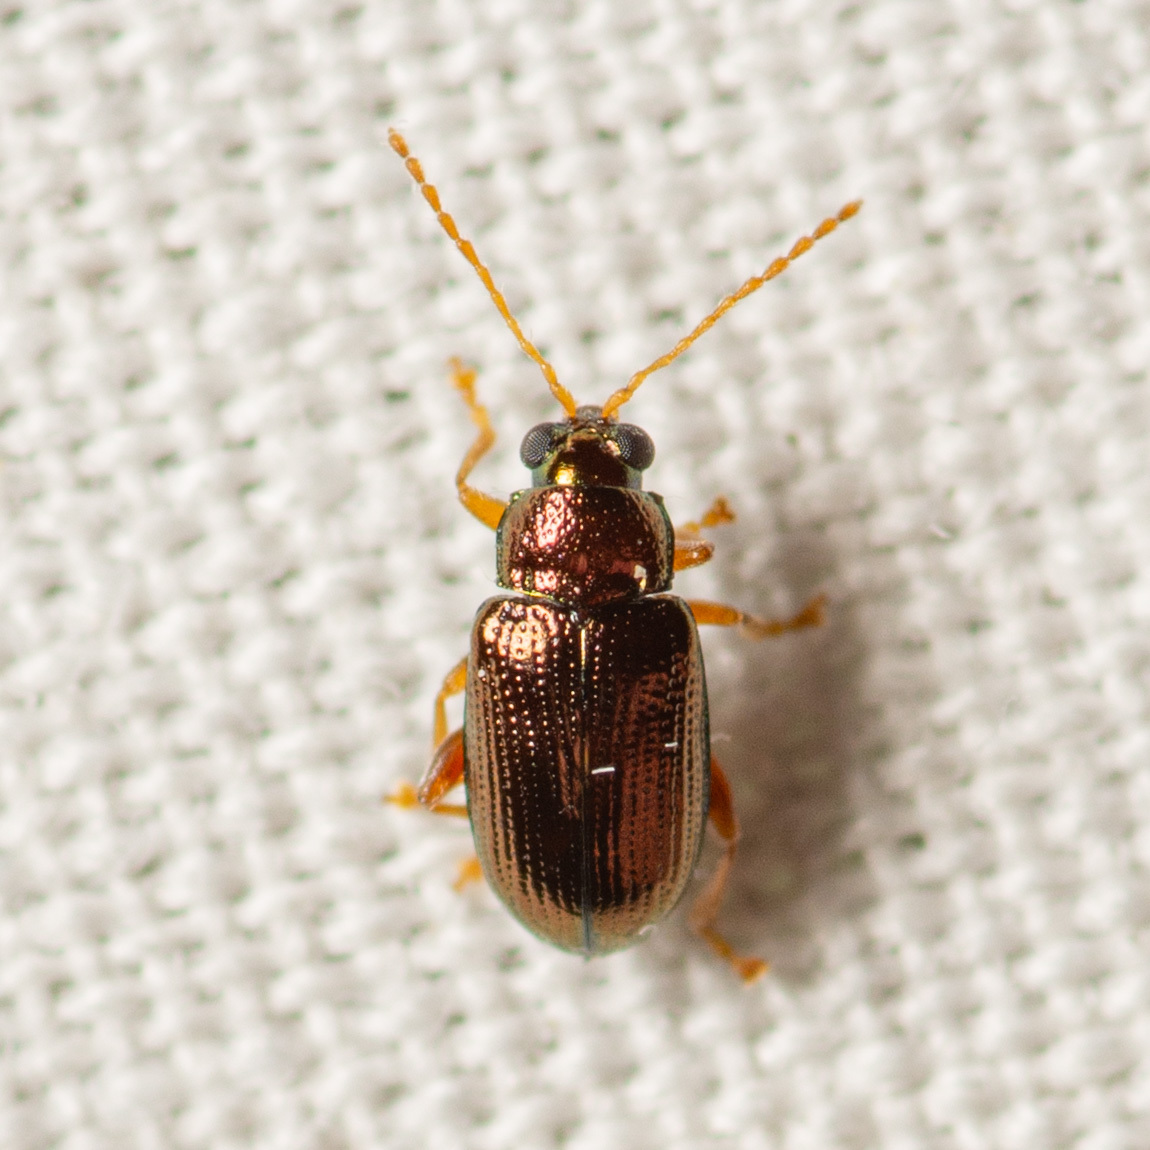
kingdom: Animalia
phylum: Arthropoda
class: Insecta
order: Coleoptera
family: Chrysomelidae
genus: Crepidodera
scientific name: Crepidodera browni
